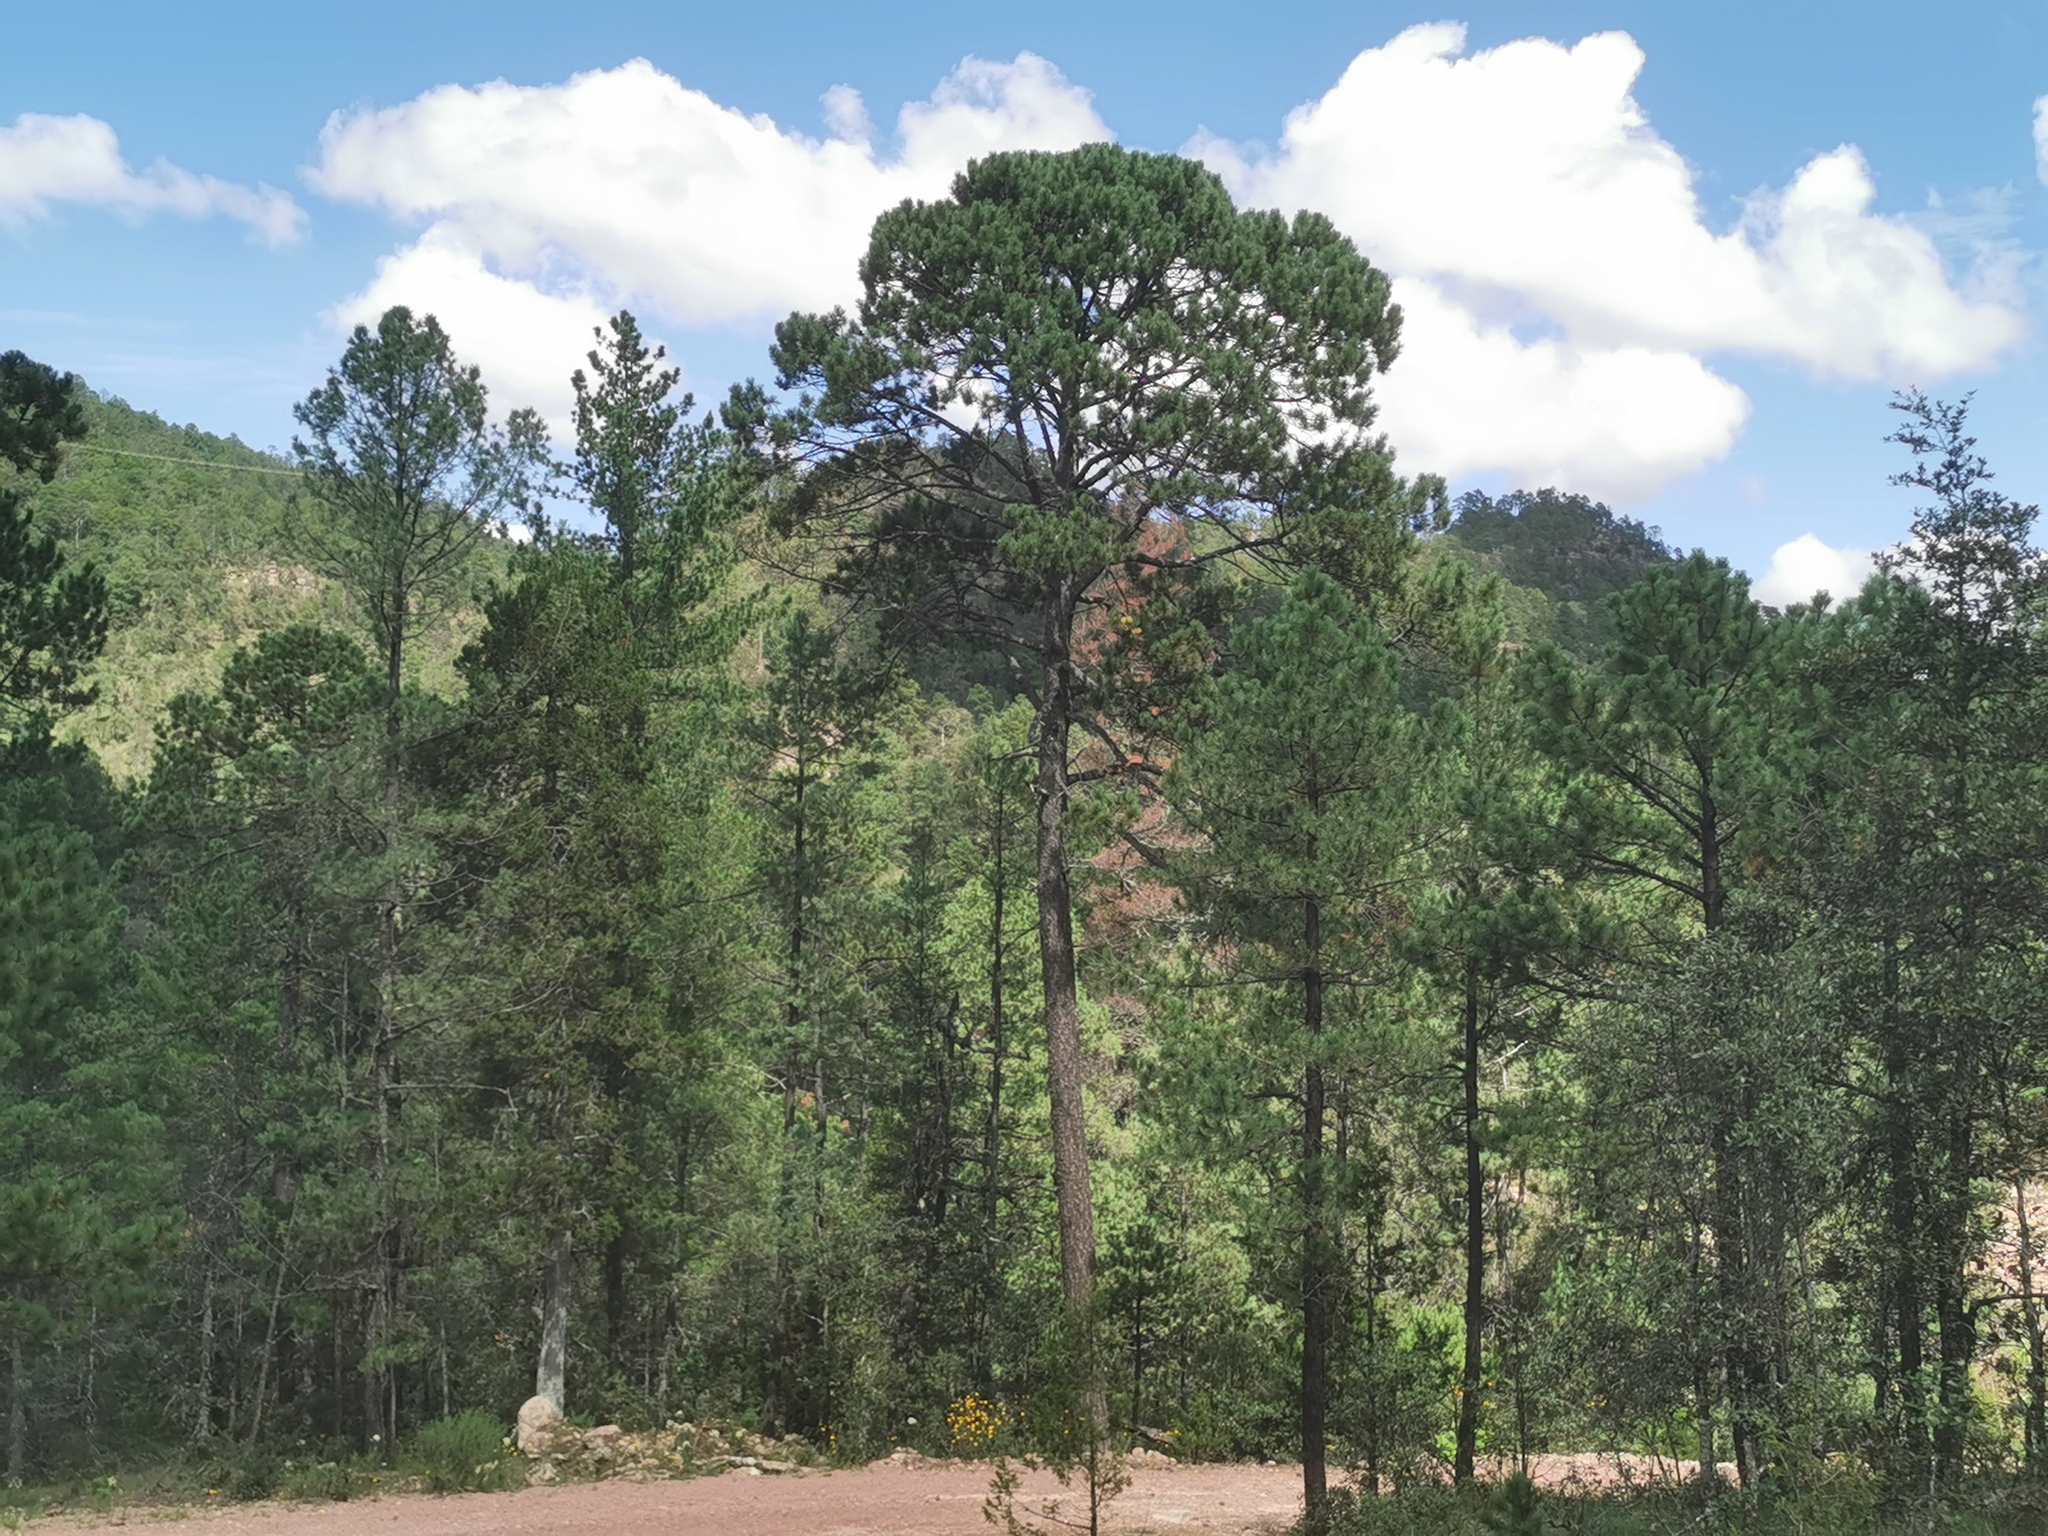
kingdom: Plantae
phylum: Tracheophyta
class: Pinopsida
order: Pinales
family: Pinaceae
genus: Pinus
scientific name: Pinus arizonica
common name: Arizona pine
